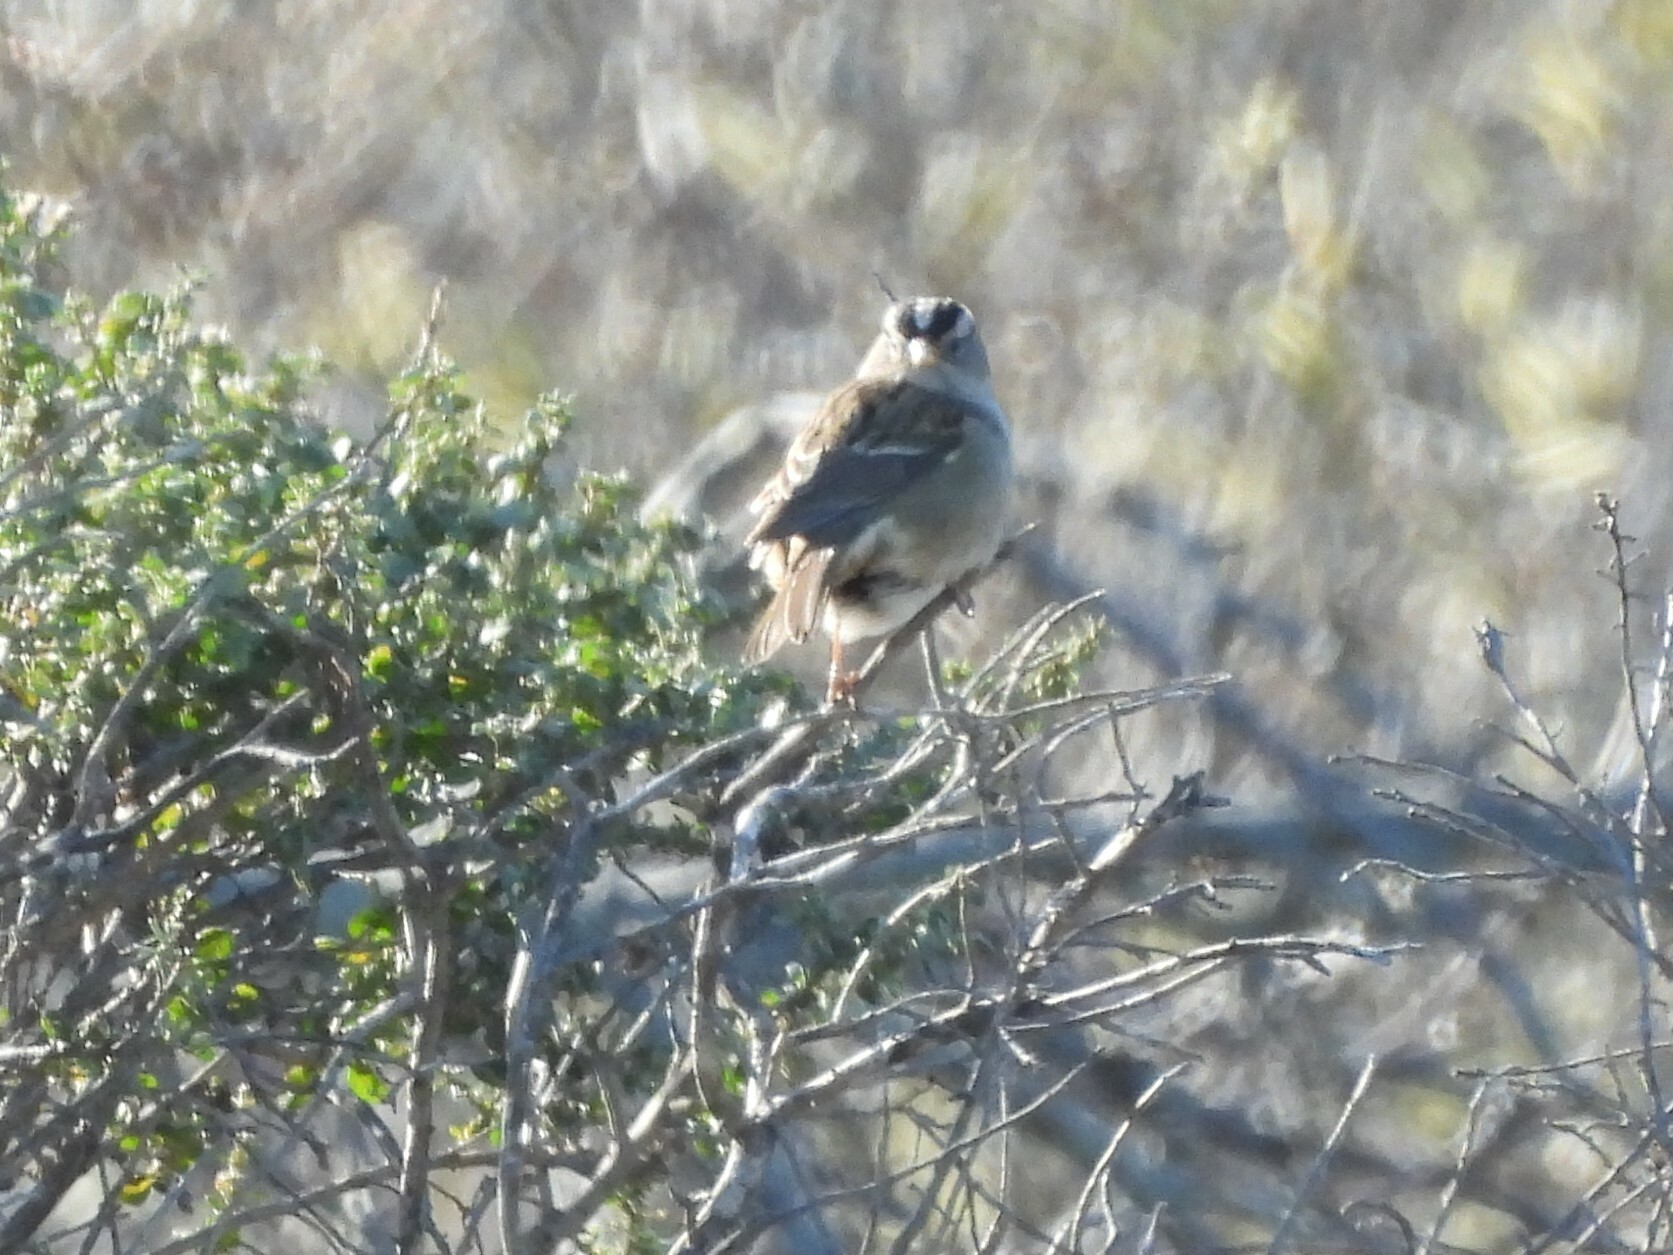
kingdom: Animalia
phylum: Chordata
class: Aves
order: Passeriformes
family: Passerellidae
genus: Zonotrichia
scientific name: Zonotrichia leucophrys
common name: White-crowned sparrow
